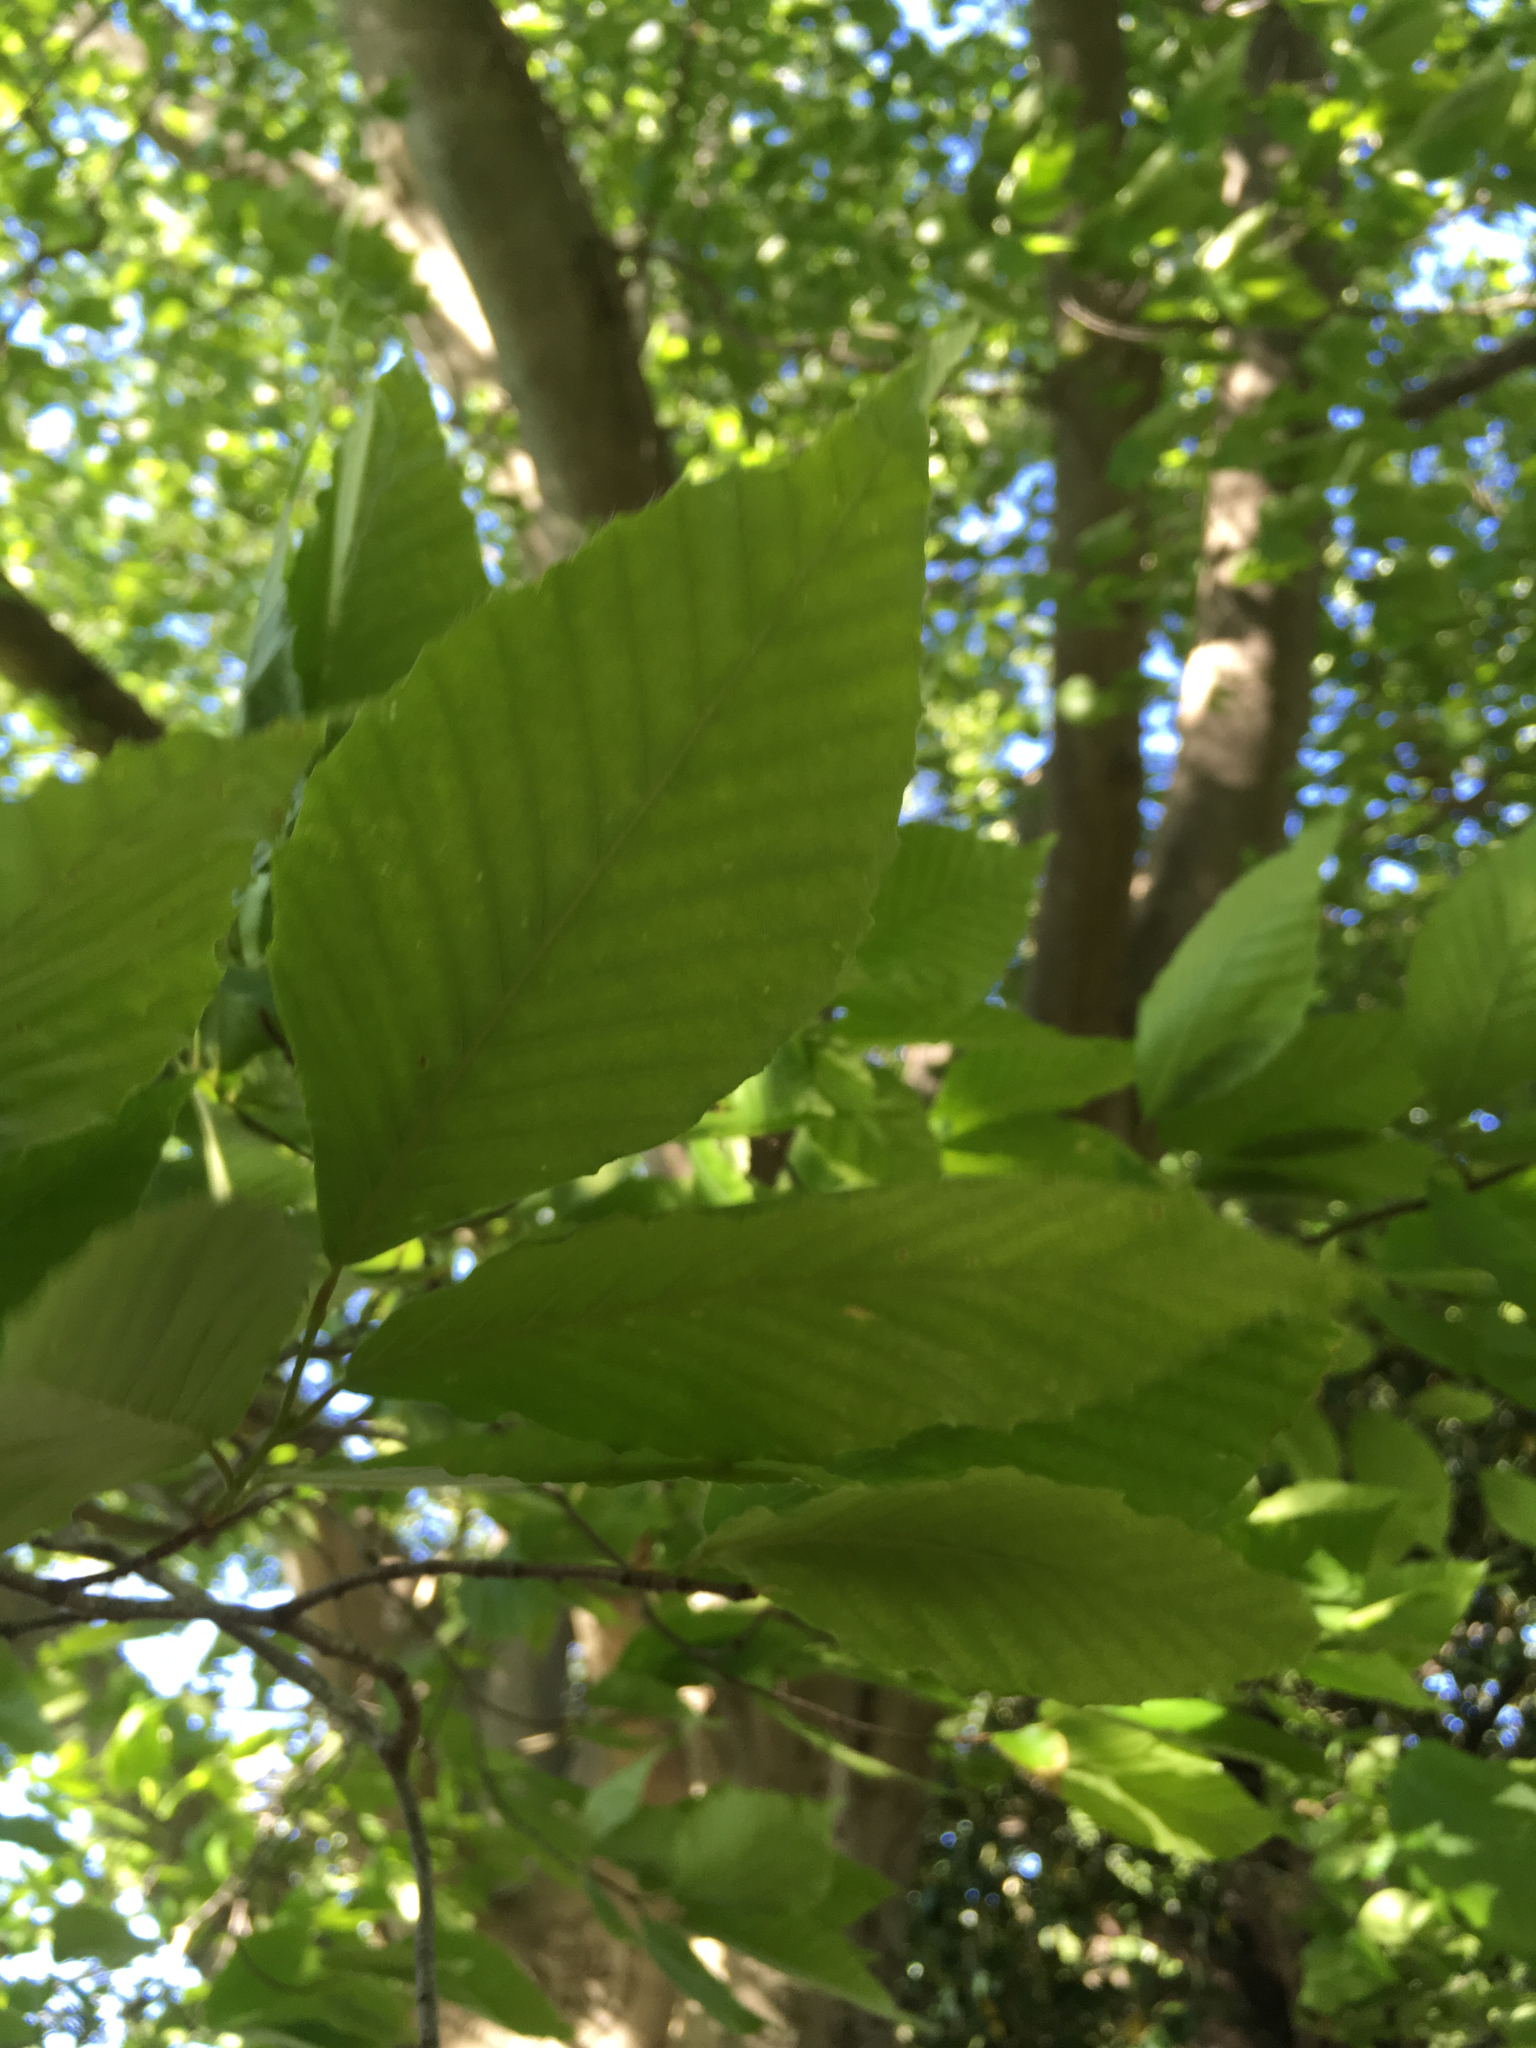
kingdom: Plantae
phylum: Tracheophyta
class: Magnoliopsida
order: Fagales
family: Fagaceae
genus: Fagus
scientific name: Fagus grandifolia
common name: American beech
